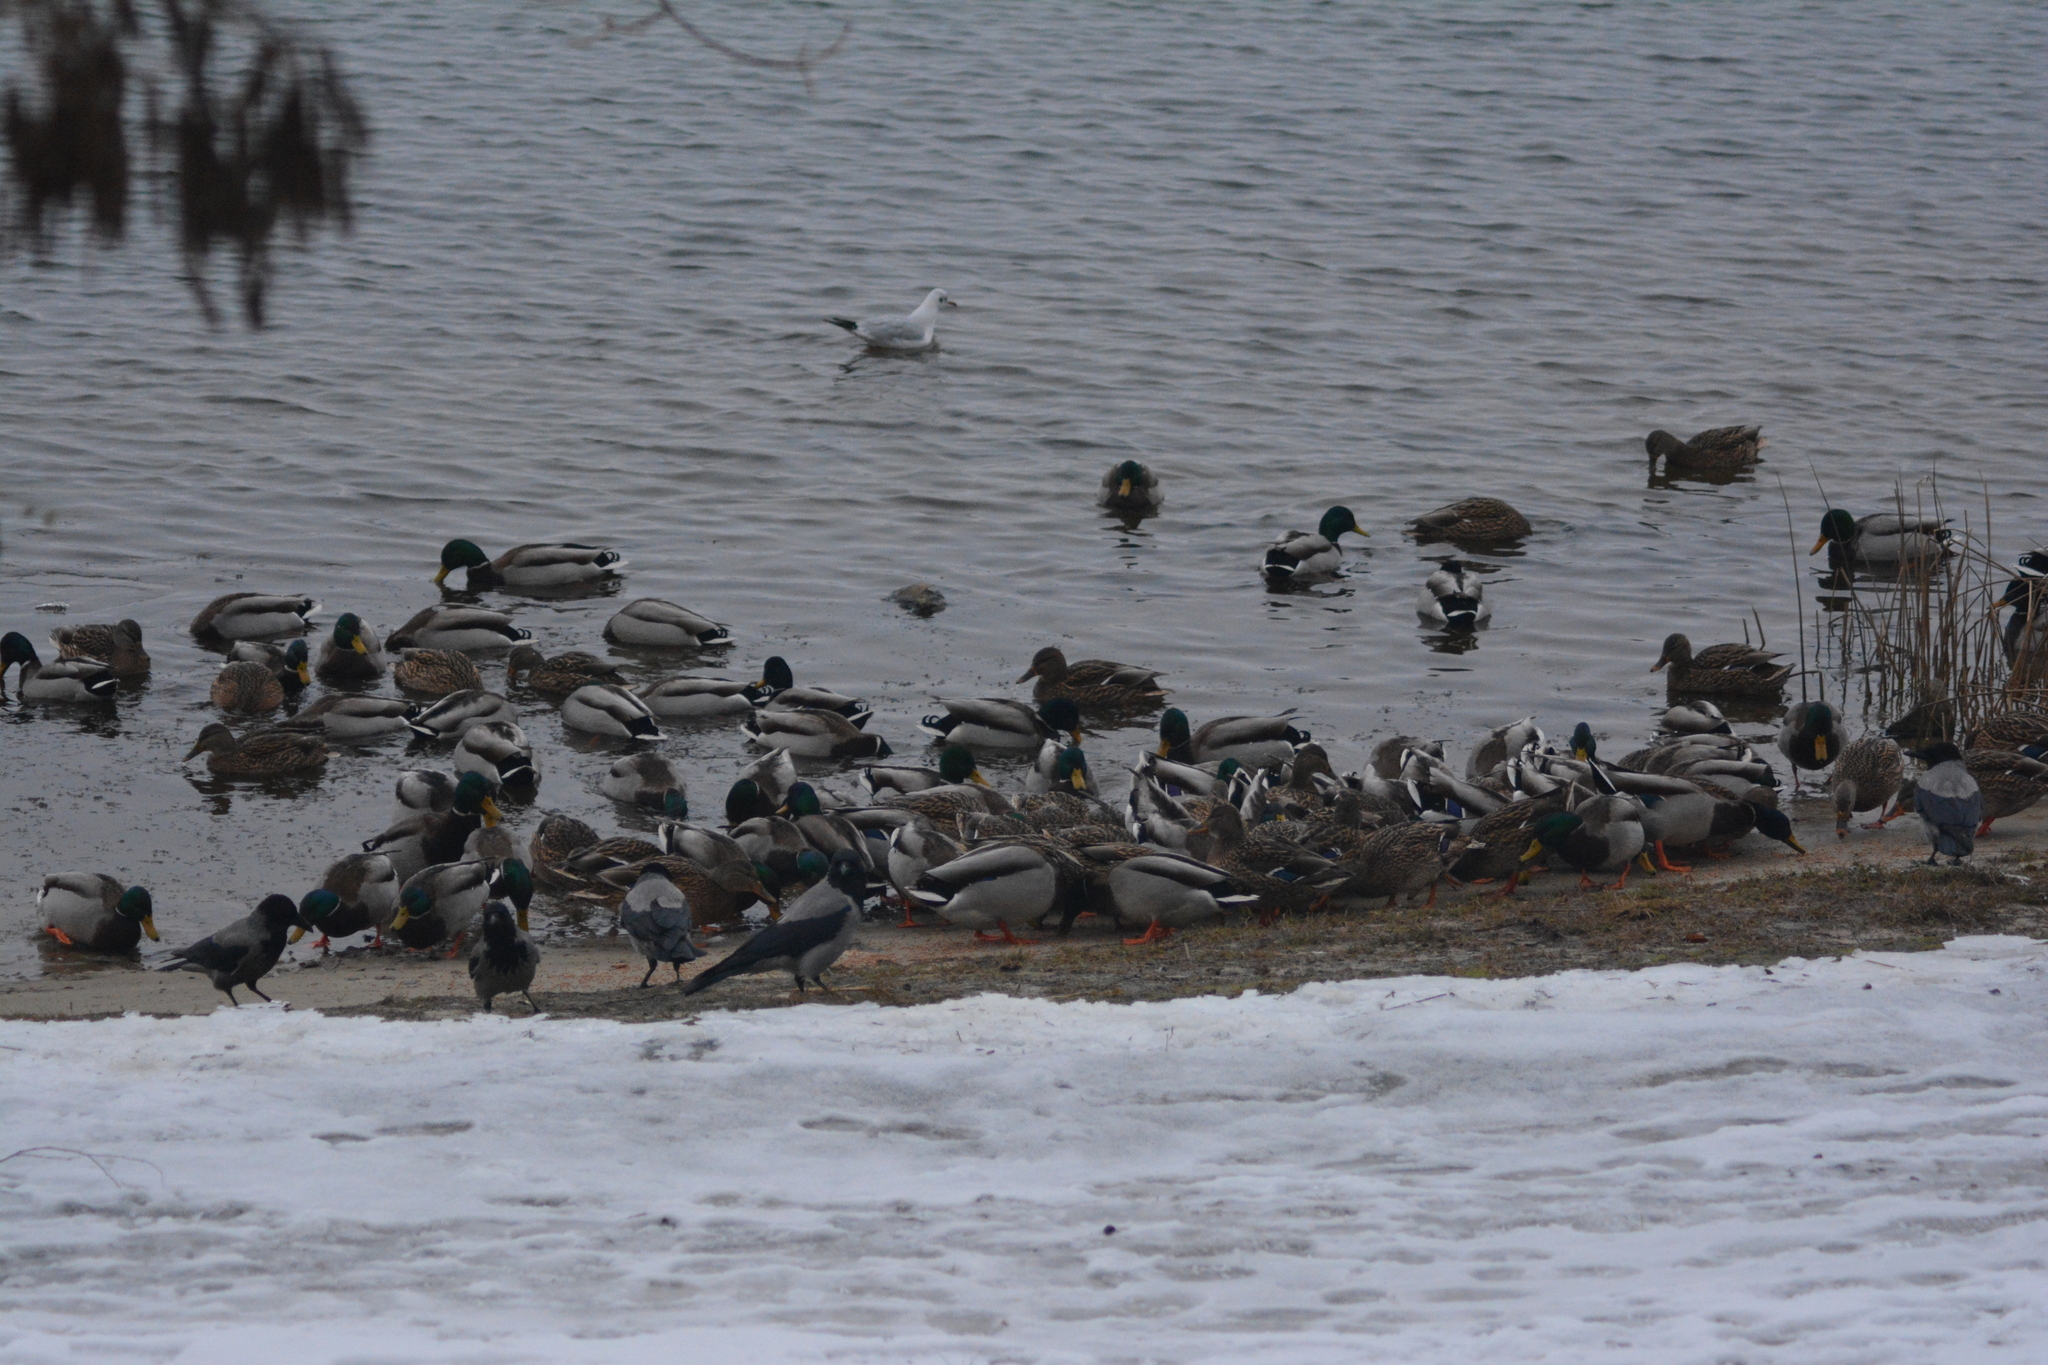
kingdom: Animalia
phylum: Chordata
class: Aves
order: Anseriformes
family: Anatidae
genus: Anas
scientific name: Anas platyrhynchos
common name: Mallard
